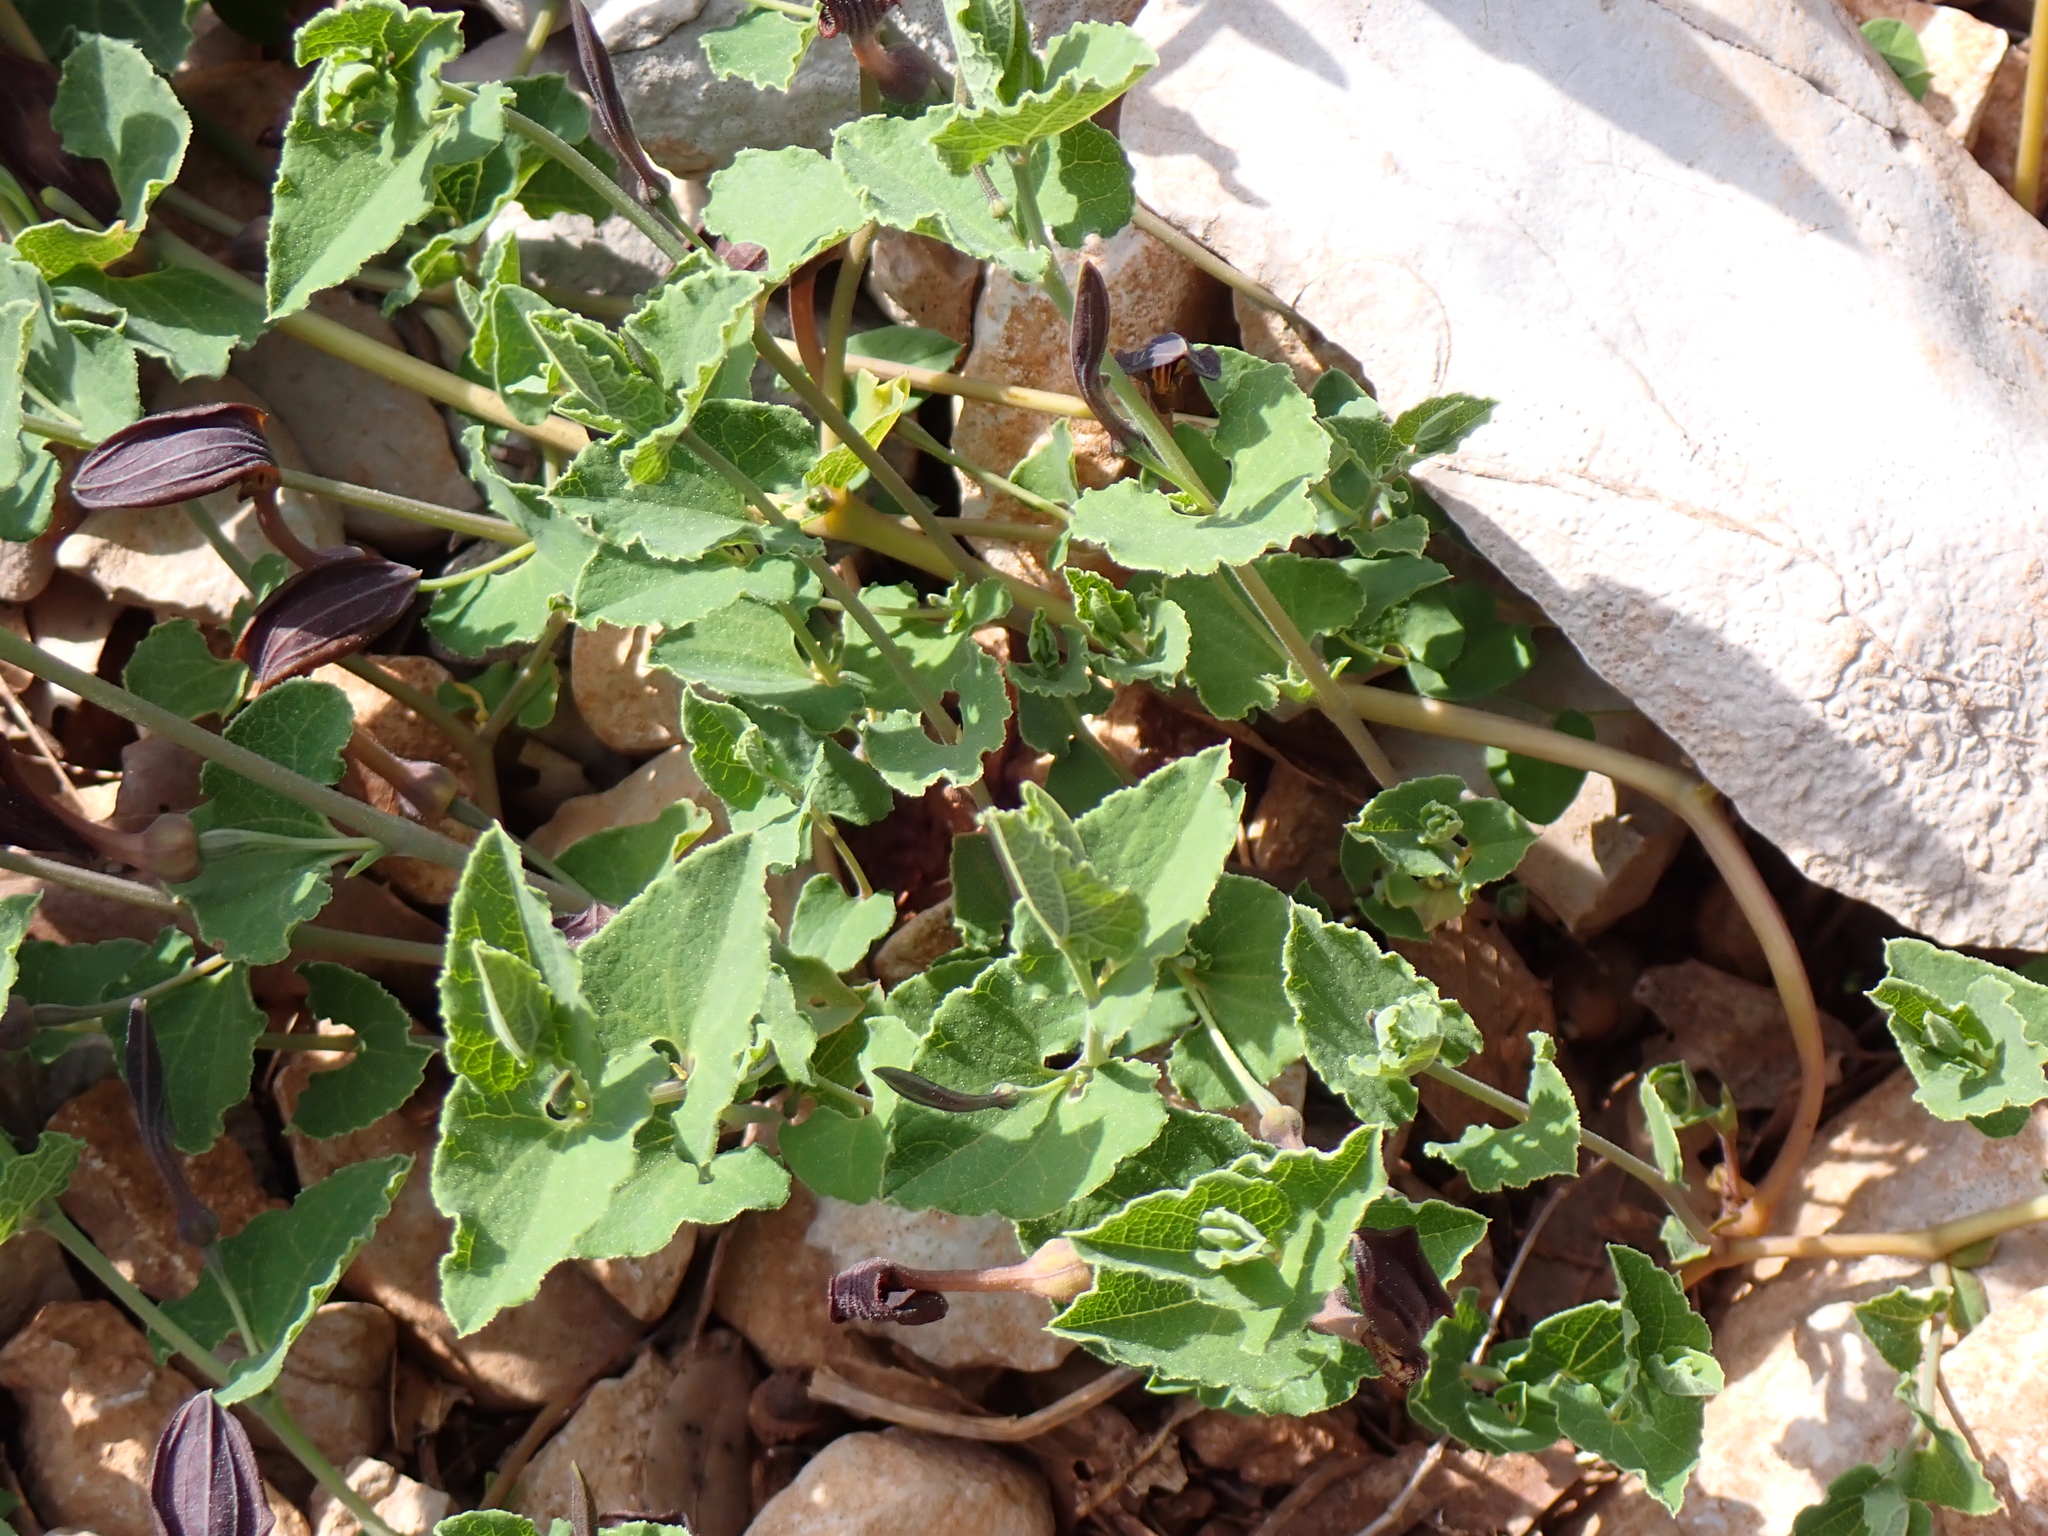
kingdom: Plantae
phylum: Tracheophyta
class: Magnoliopsida
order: Piperales
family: Aristolochiaceae
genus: Aristolochia
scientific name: Aristolochia pistolochia
